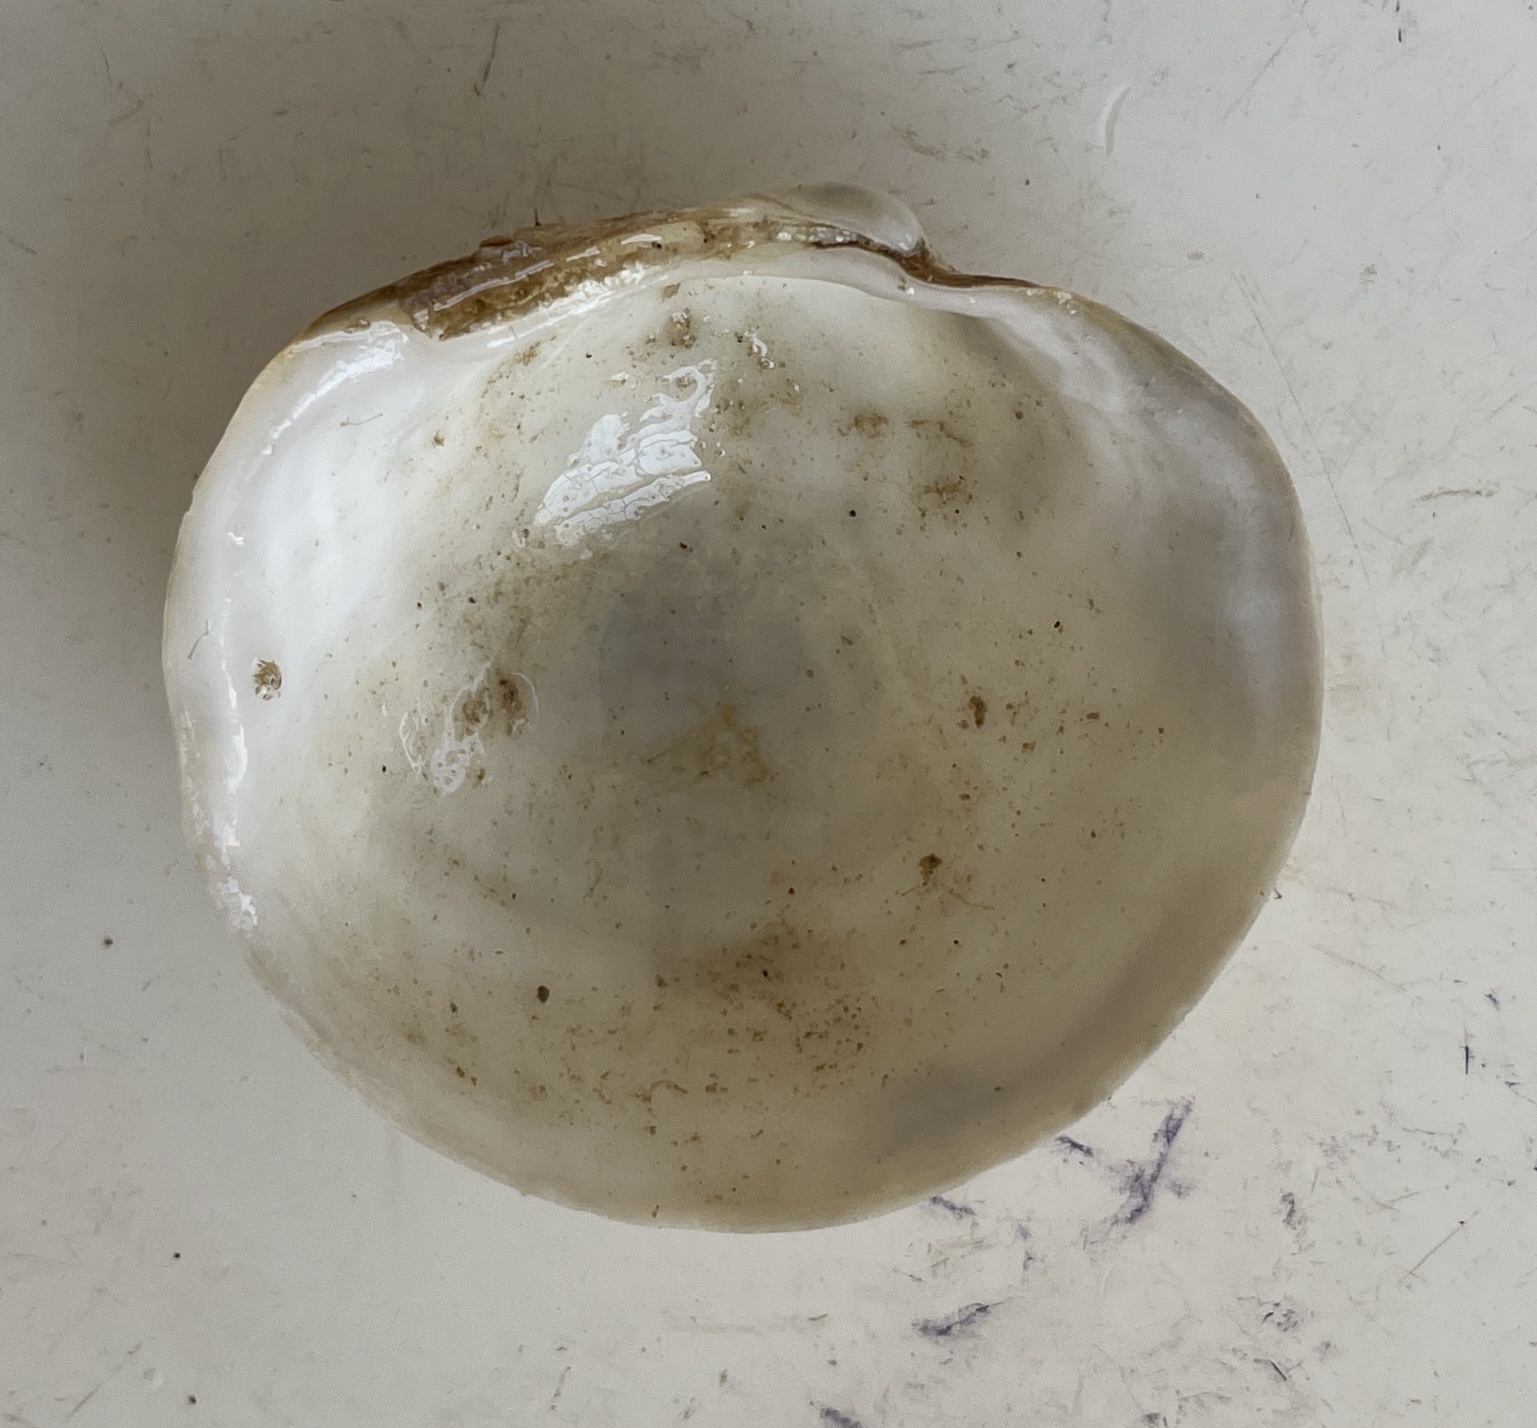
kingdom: Animalia
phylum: Mollusca
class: Bivalvia
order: Lucinida
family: Lucinidae
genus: Pegophysema
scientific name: Pegophysema schrammi
